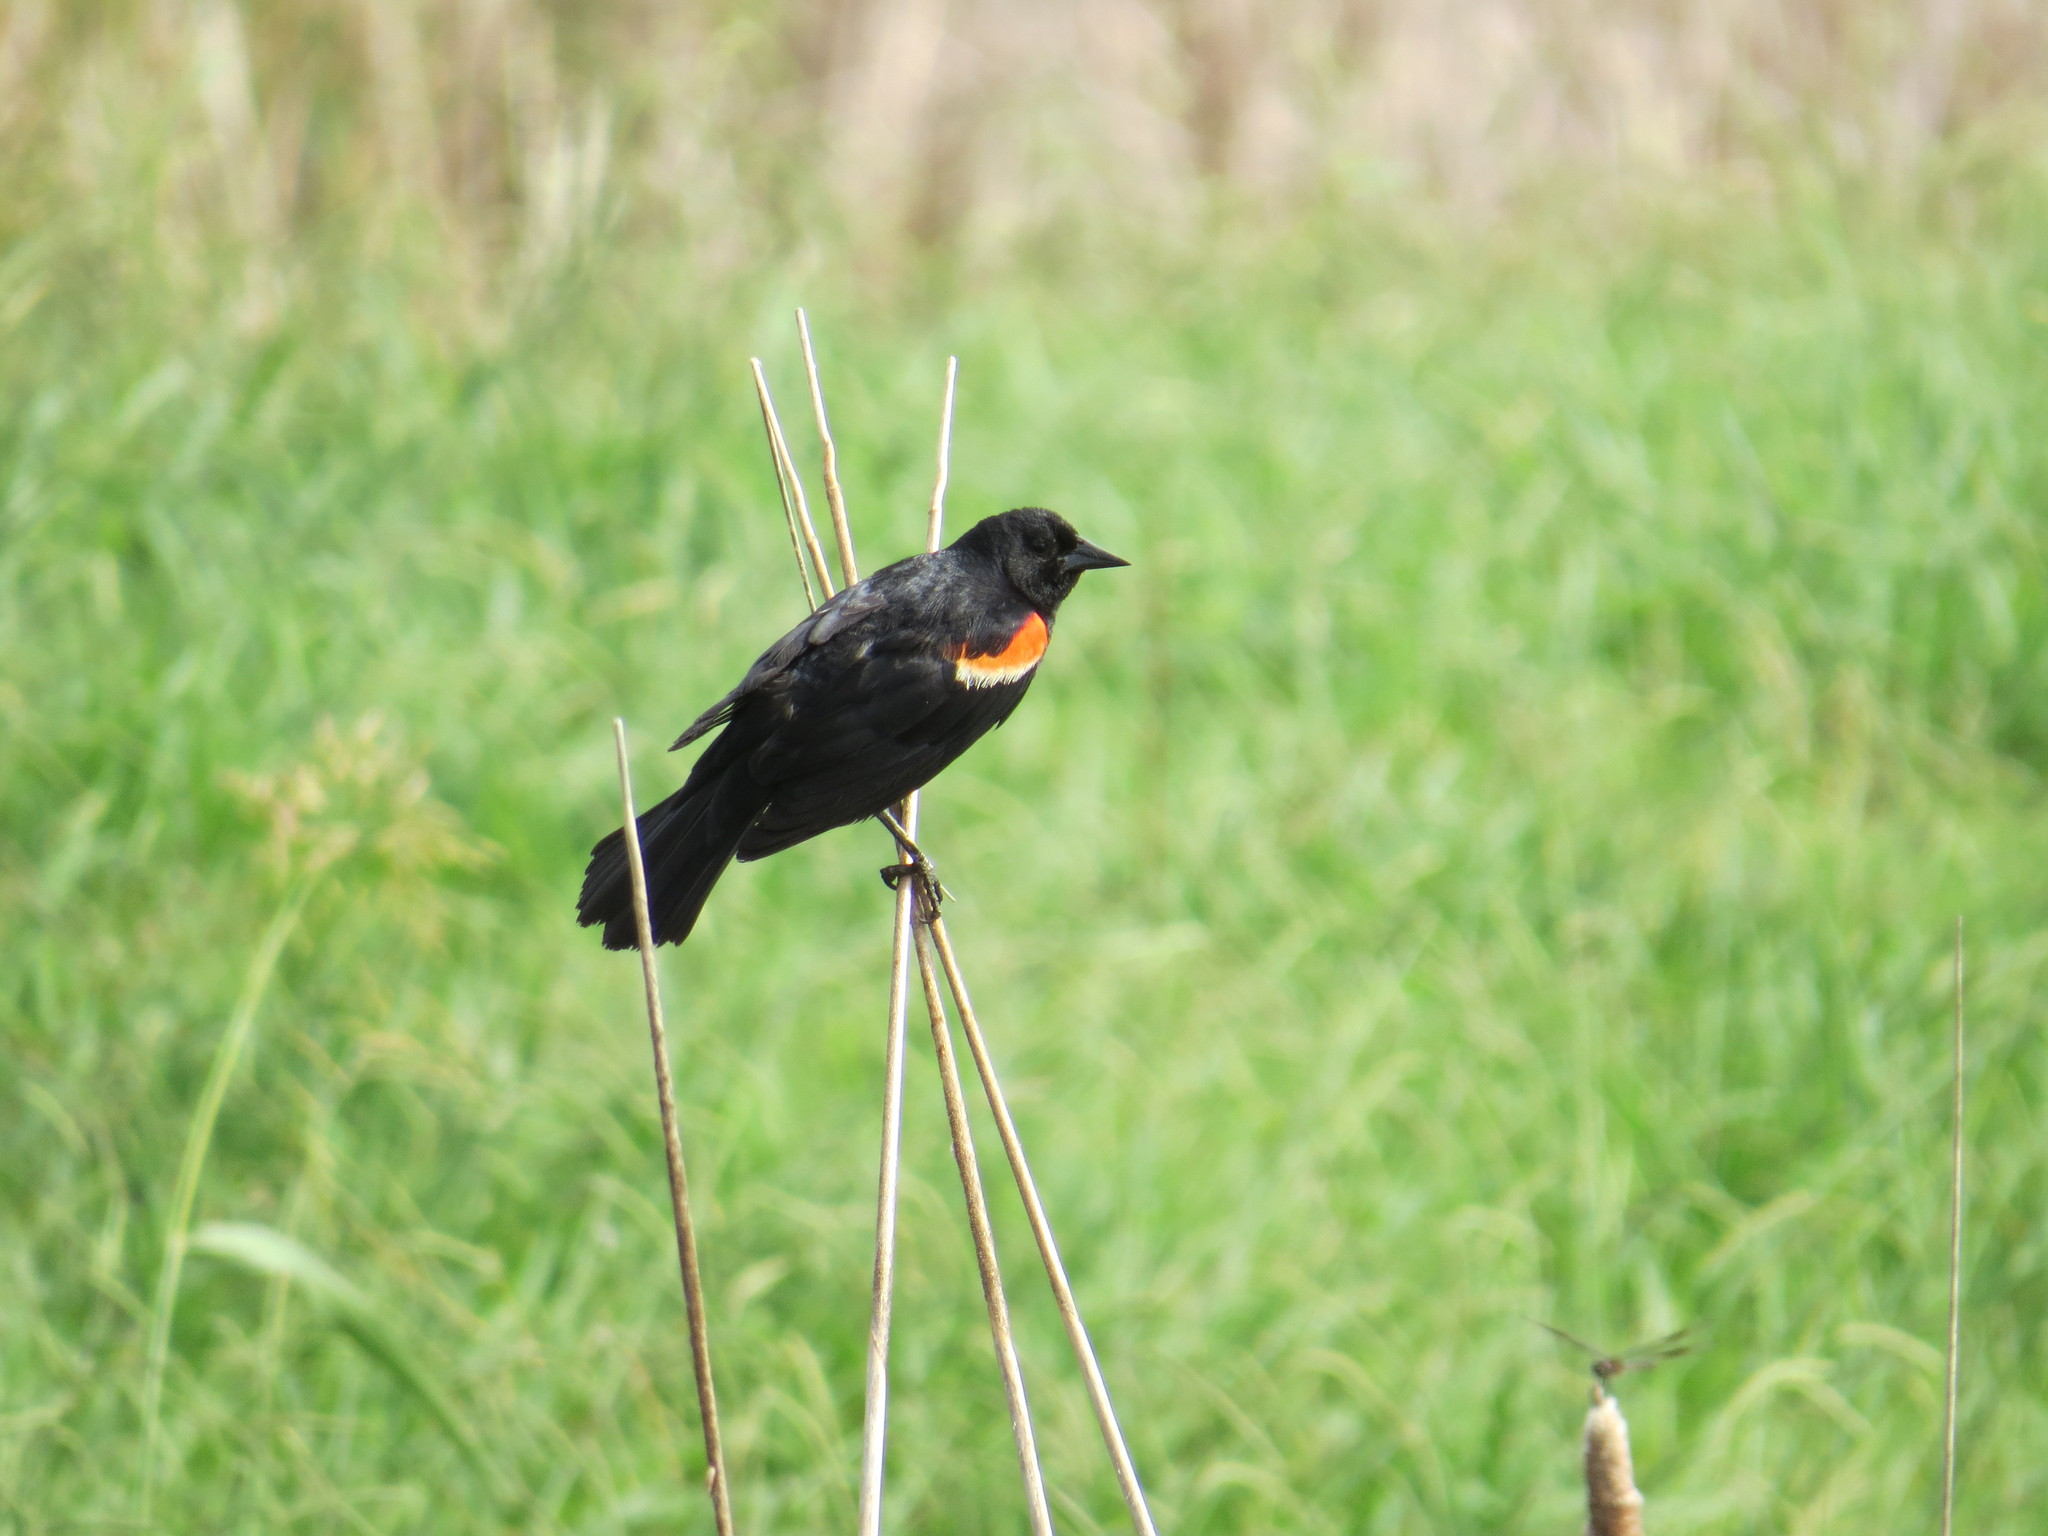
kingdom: Animalia
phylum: Chordata
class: Aves
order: Passeriformes
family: Icteridae
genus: Agelaius
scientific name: Agelaius phoeniceus
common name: Red-winged blackbird
